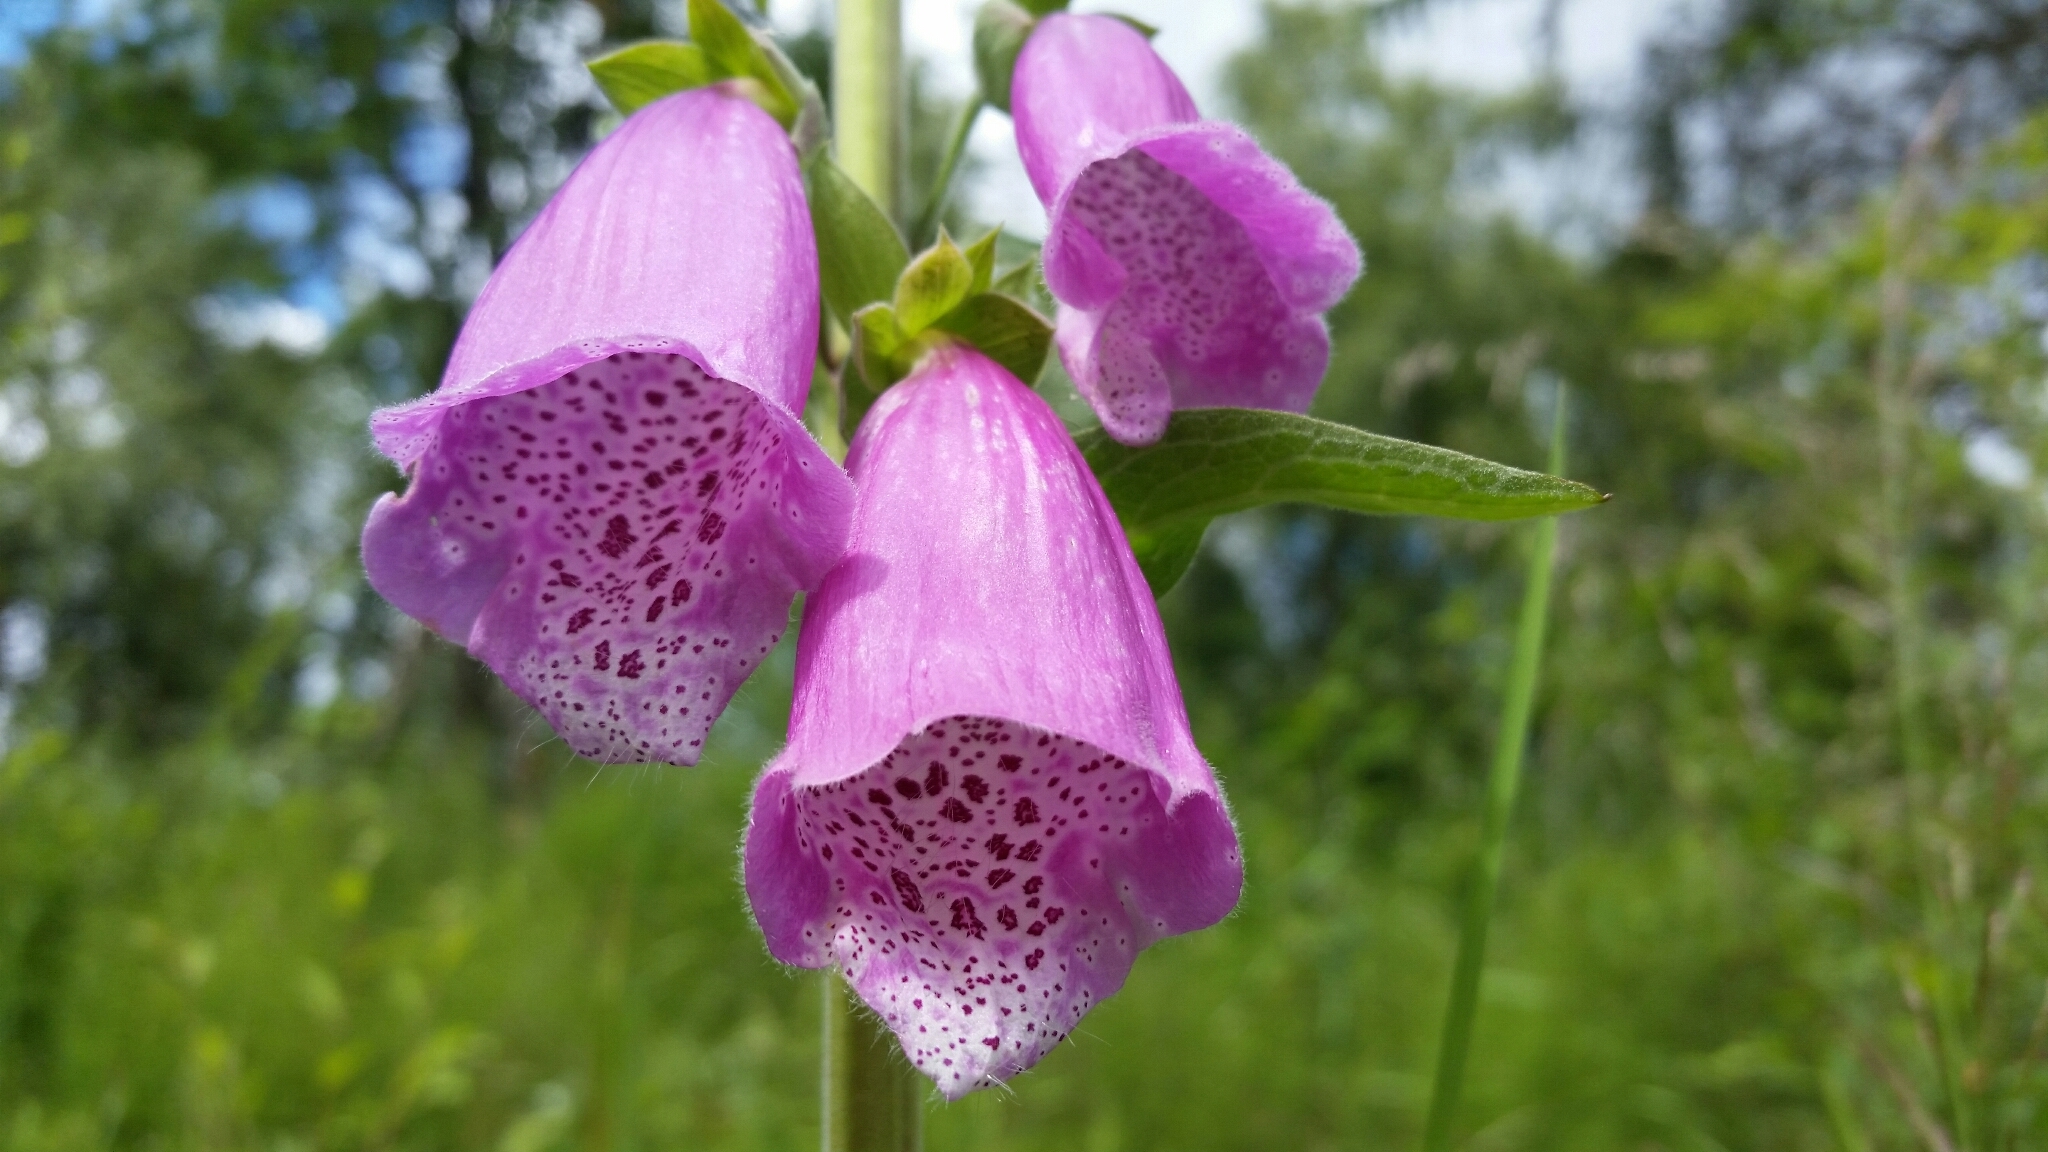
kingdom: Plantae
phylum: Tracheophyta
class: Magnoliopsida
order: Lamiales
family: Plantaginaceae
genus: Digitalis
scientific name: Digitalis purpurea
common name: Foxglove
